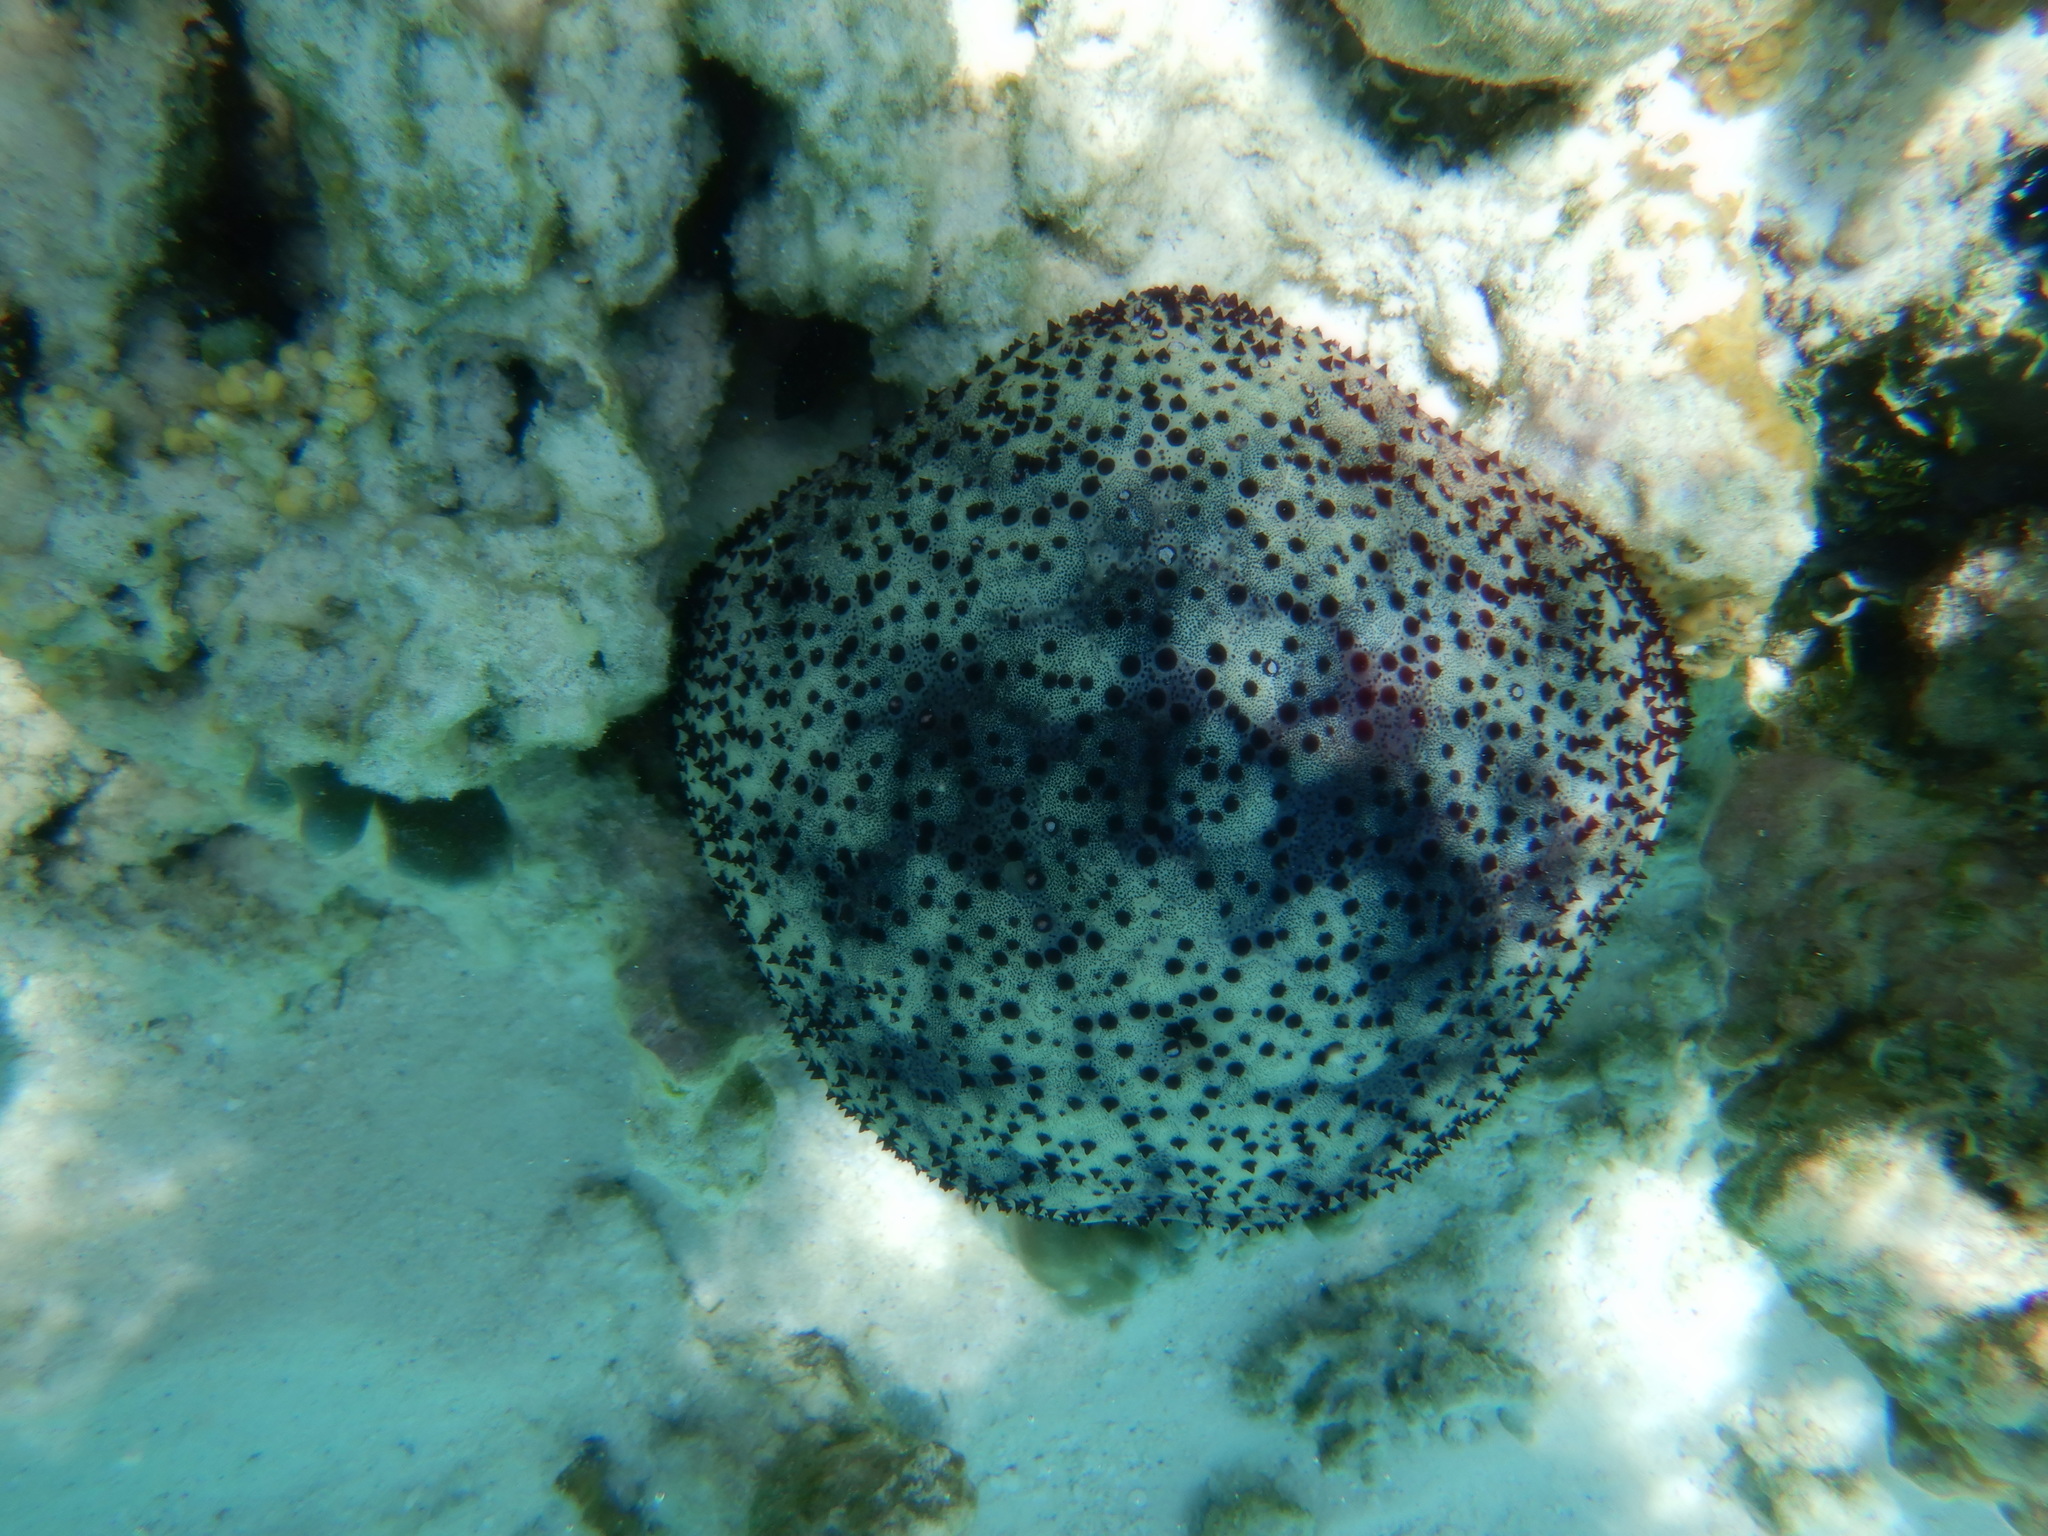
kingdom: Animalia
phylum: Echinodermata
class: Asteroidea
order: Valvatida
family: Oreasteridae
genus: Culcita
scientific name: Culcita schmideliana
